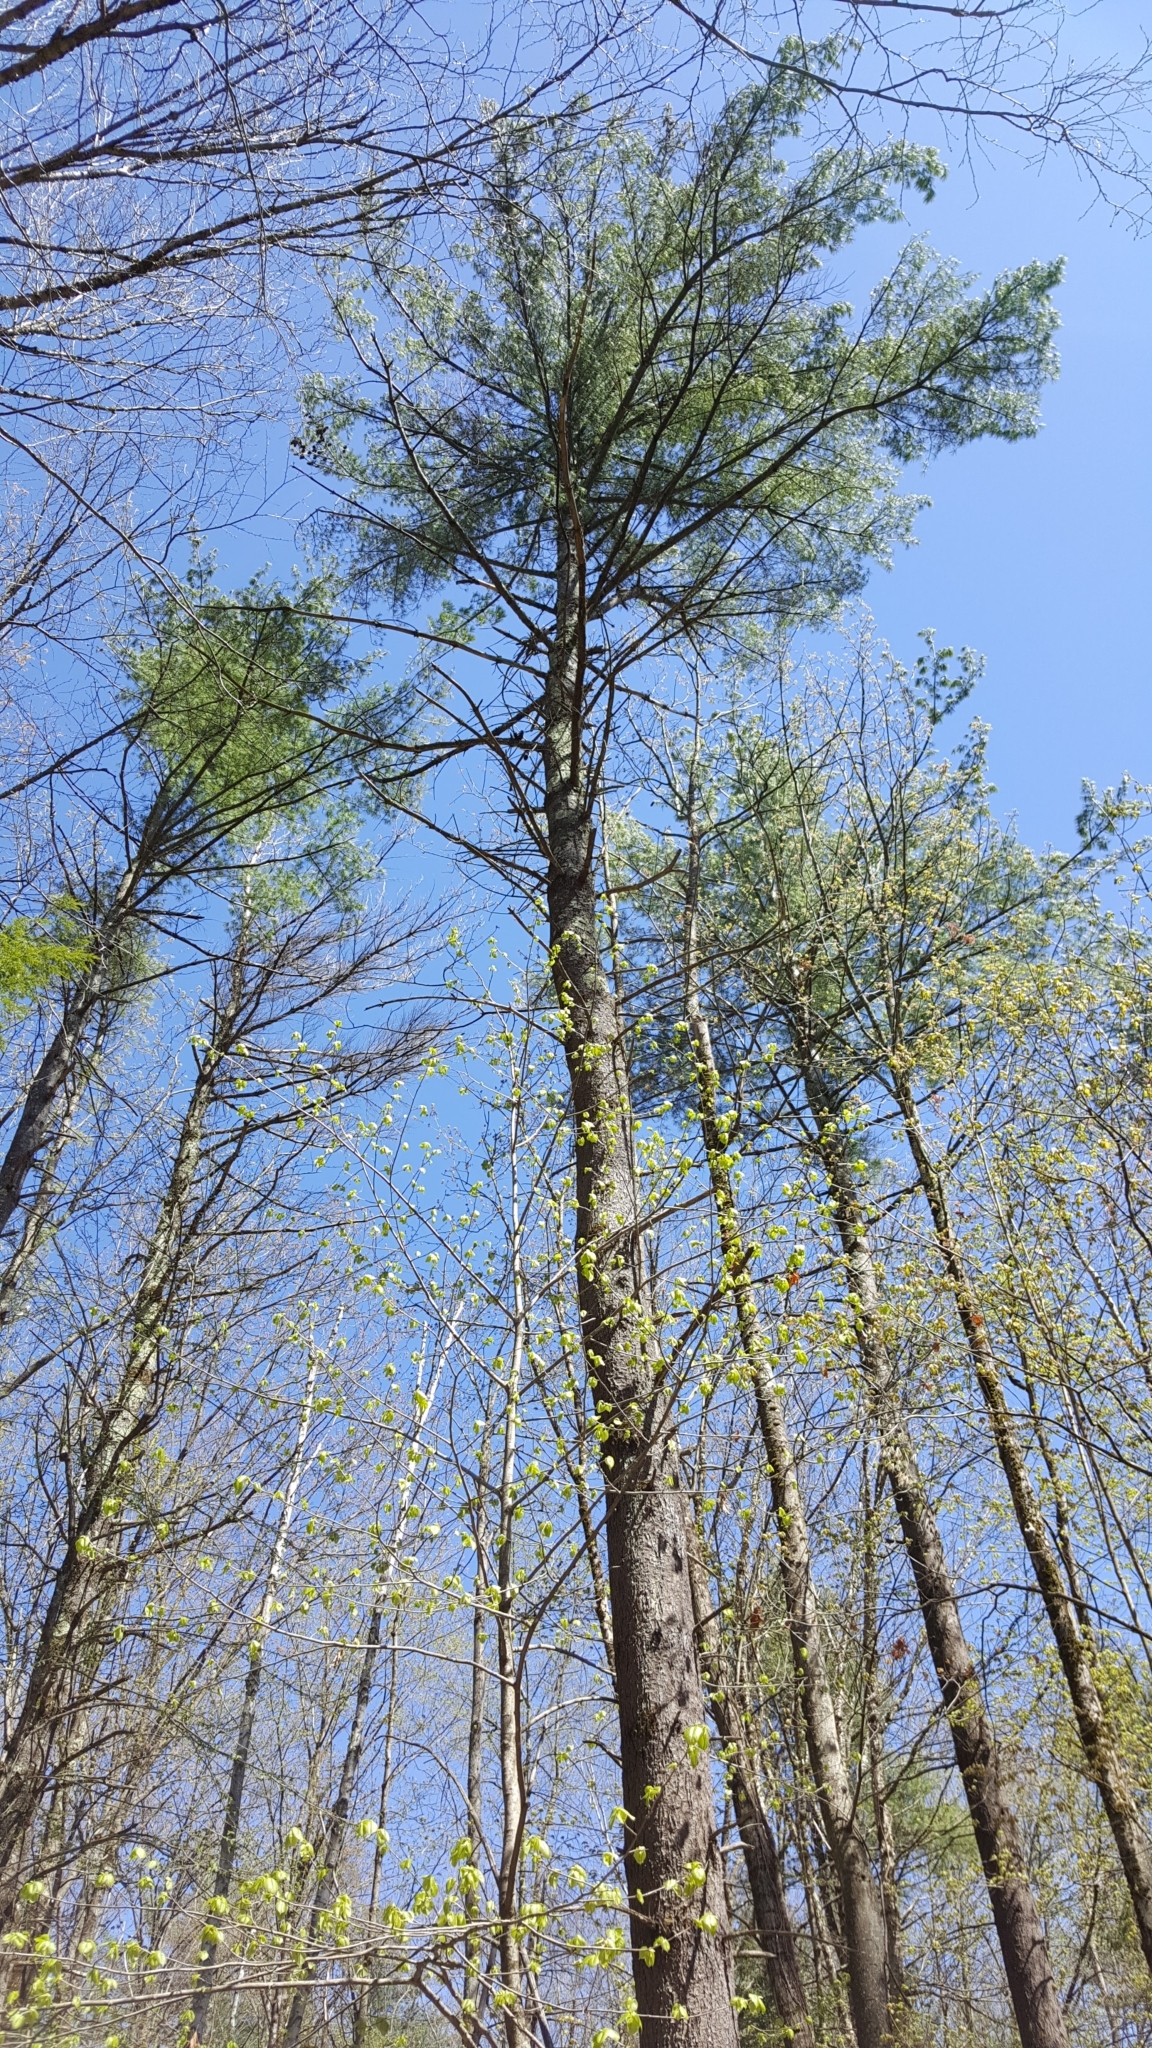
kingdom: Plantae
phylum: Tracheophyta
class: Pinopsida
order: Pinales
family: Pinaceae
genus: Pinus
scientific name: Pinus strobus
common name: Weymouth pine
